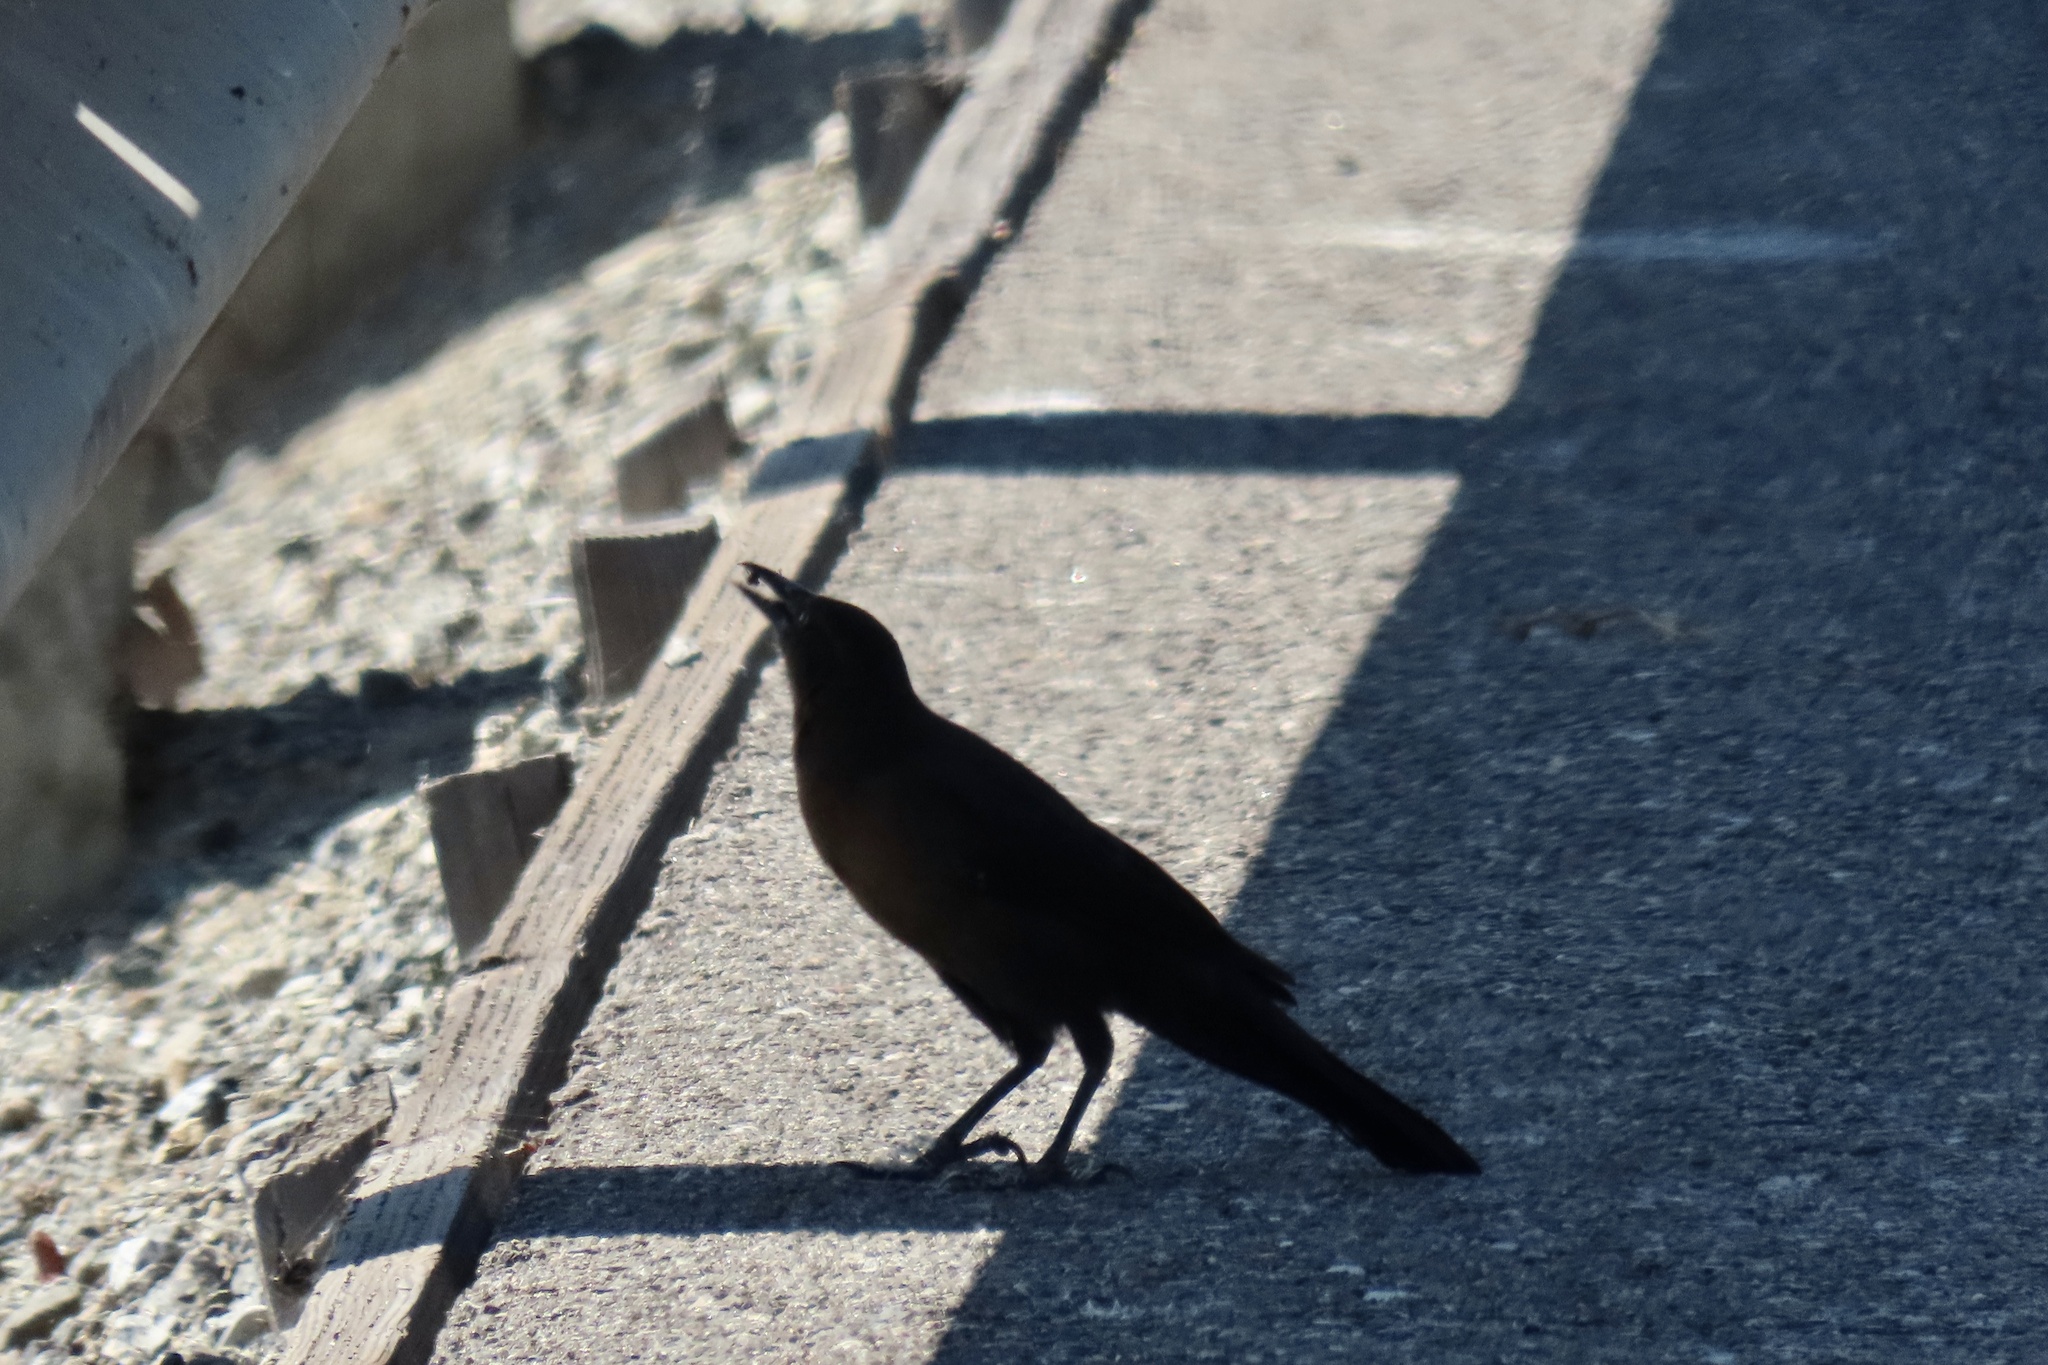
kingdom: Animalia
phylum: Chordata
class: Aves
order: Passeriformes
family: Icteridae
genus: Quiscalus
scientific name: Quiscalus mexicanus
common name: Great-tailed grackle
